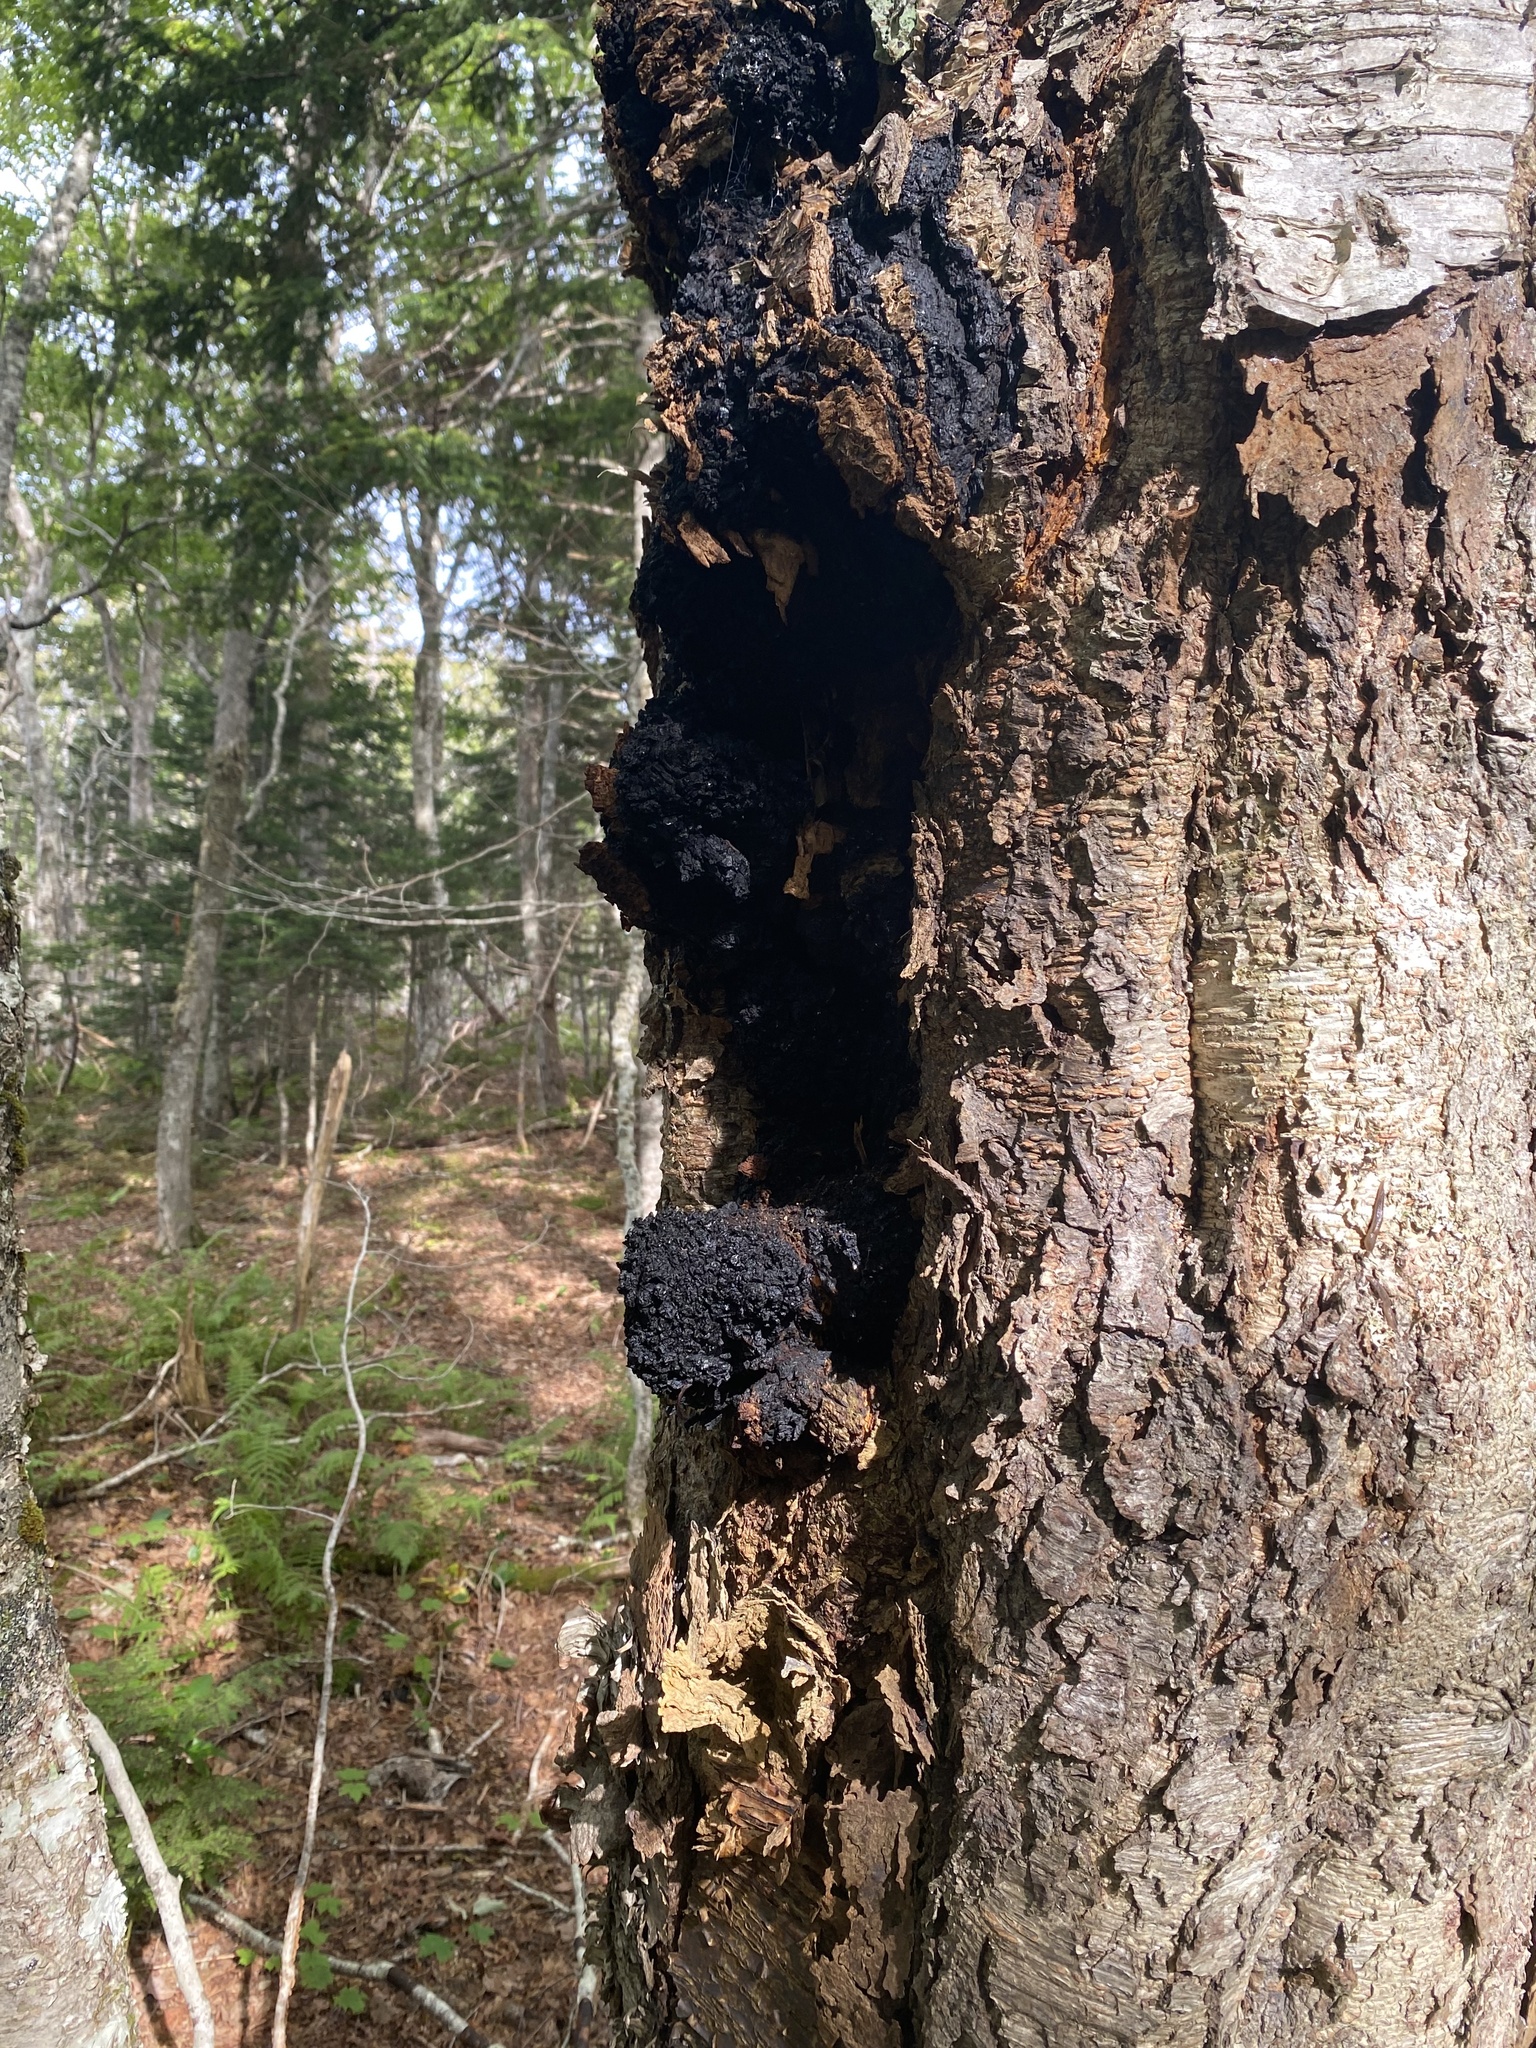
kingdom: Fungi
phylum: Basidiomycota
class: Agaricomycetes
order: Hymenochaetales
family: Hymenochaetaceae
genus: Inonotus
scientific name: Inonotus obliquus
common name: Chaga
